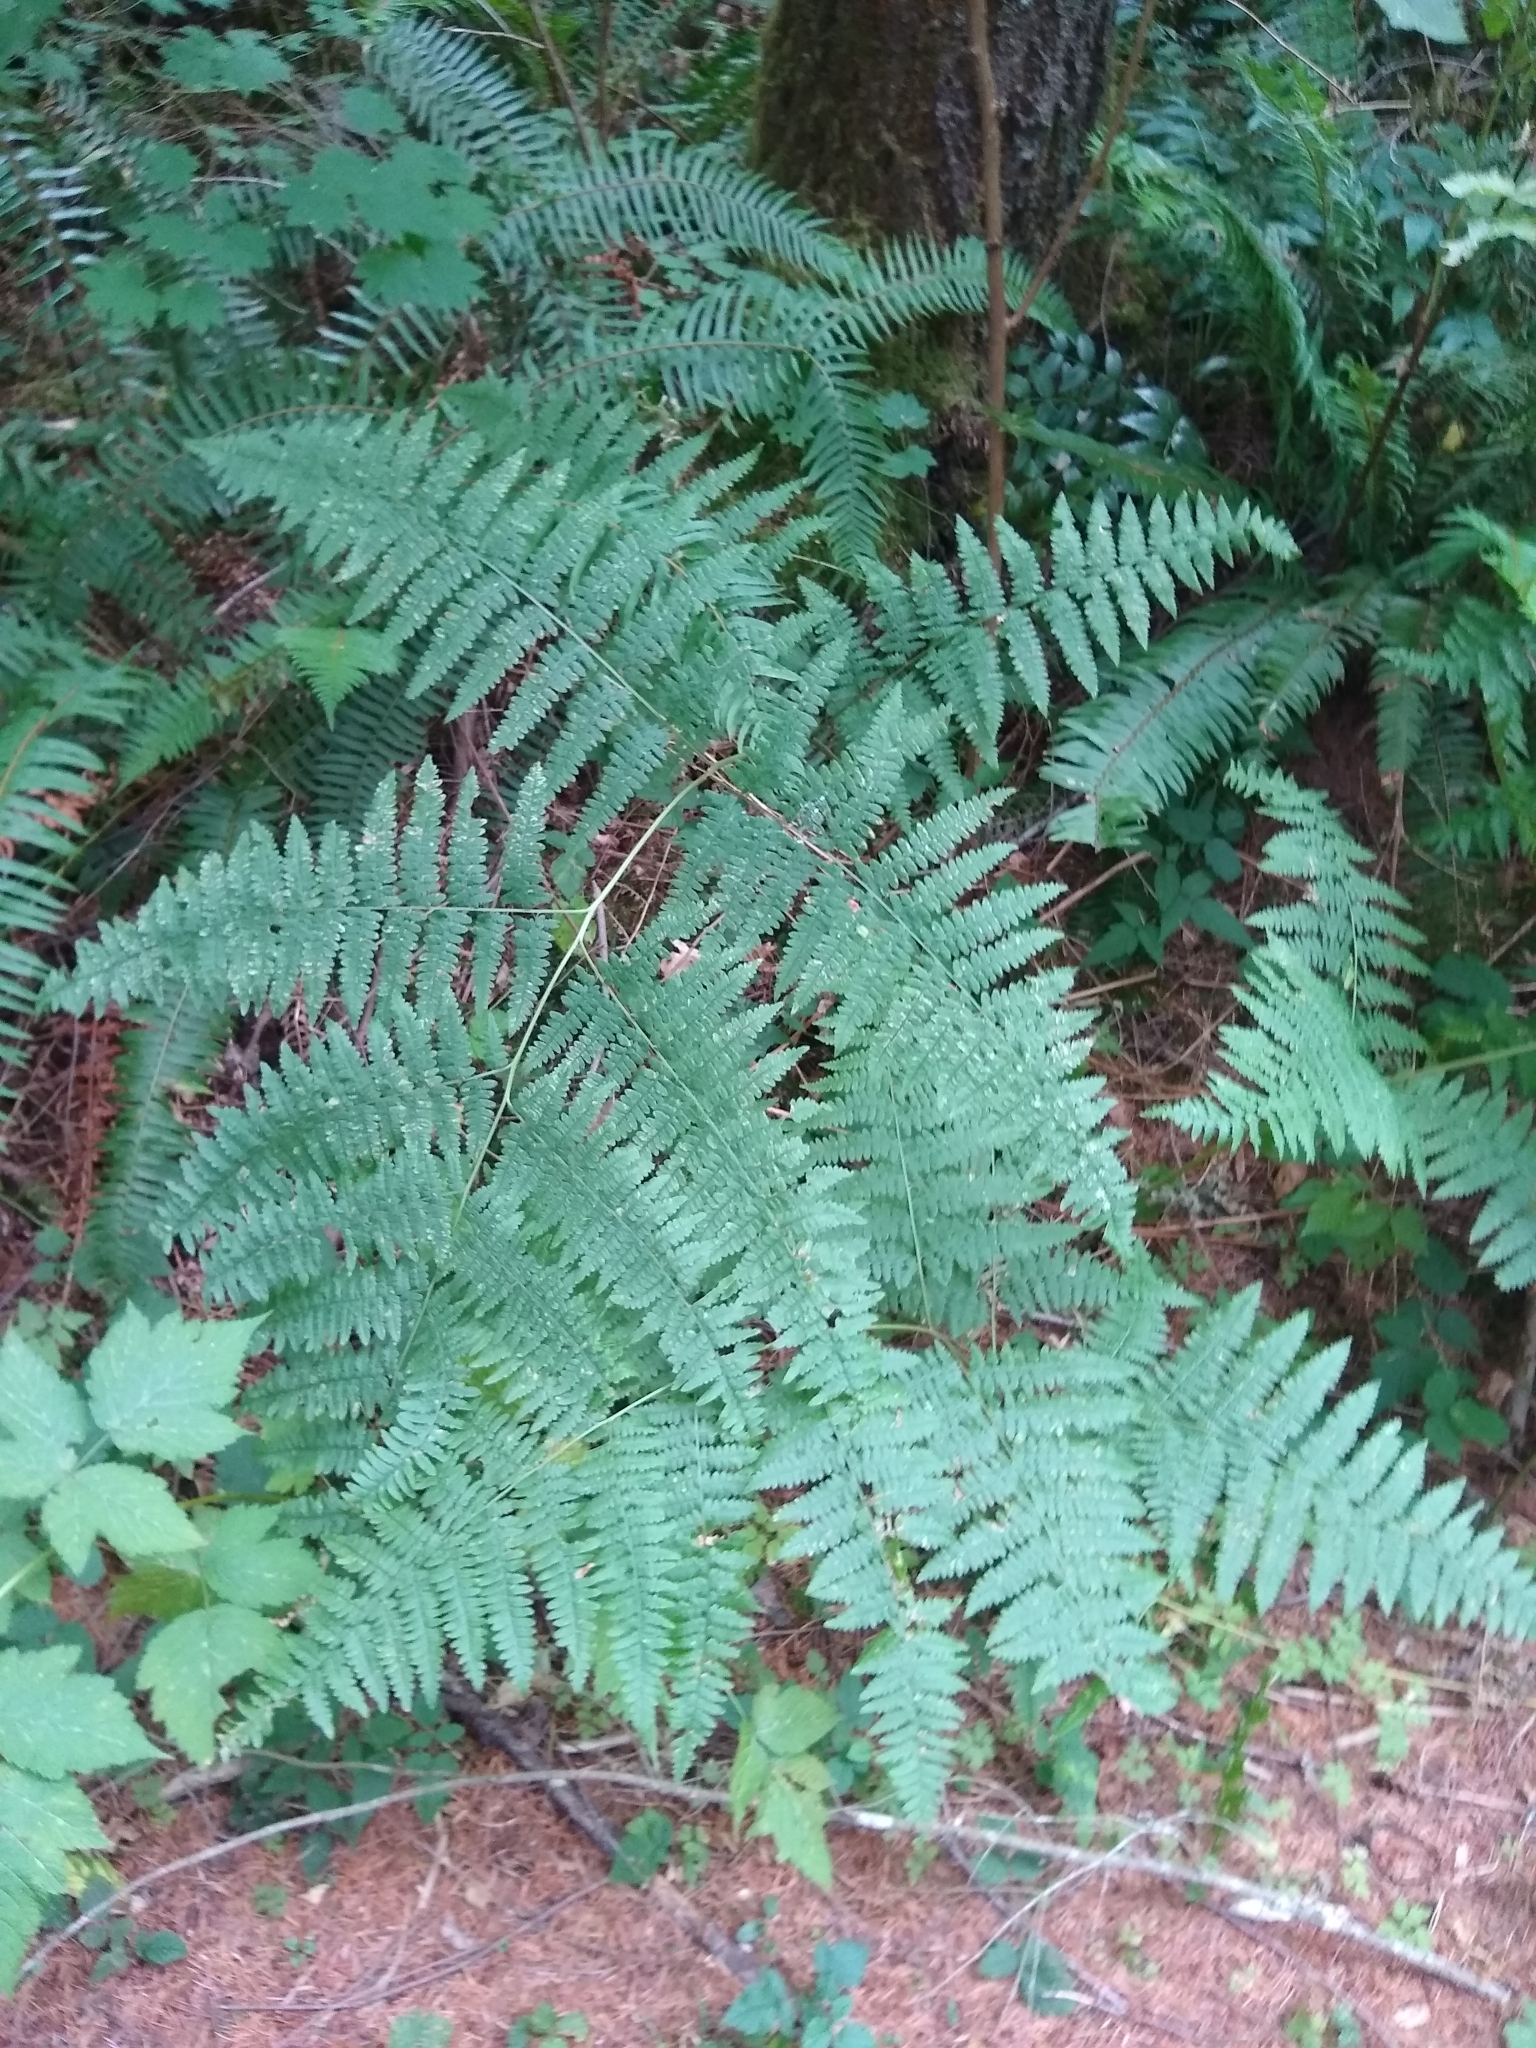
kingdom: Plantae
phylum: Tracheophyta
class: Polypodiopsida
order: Polypodiales
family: Dennstaedtiaceae
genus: Pteridium
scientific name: Pteridium aquilinum
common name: Bracken
